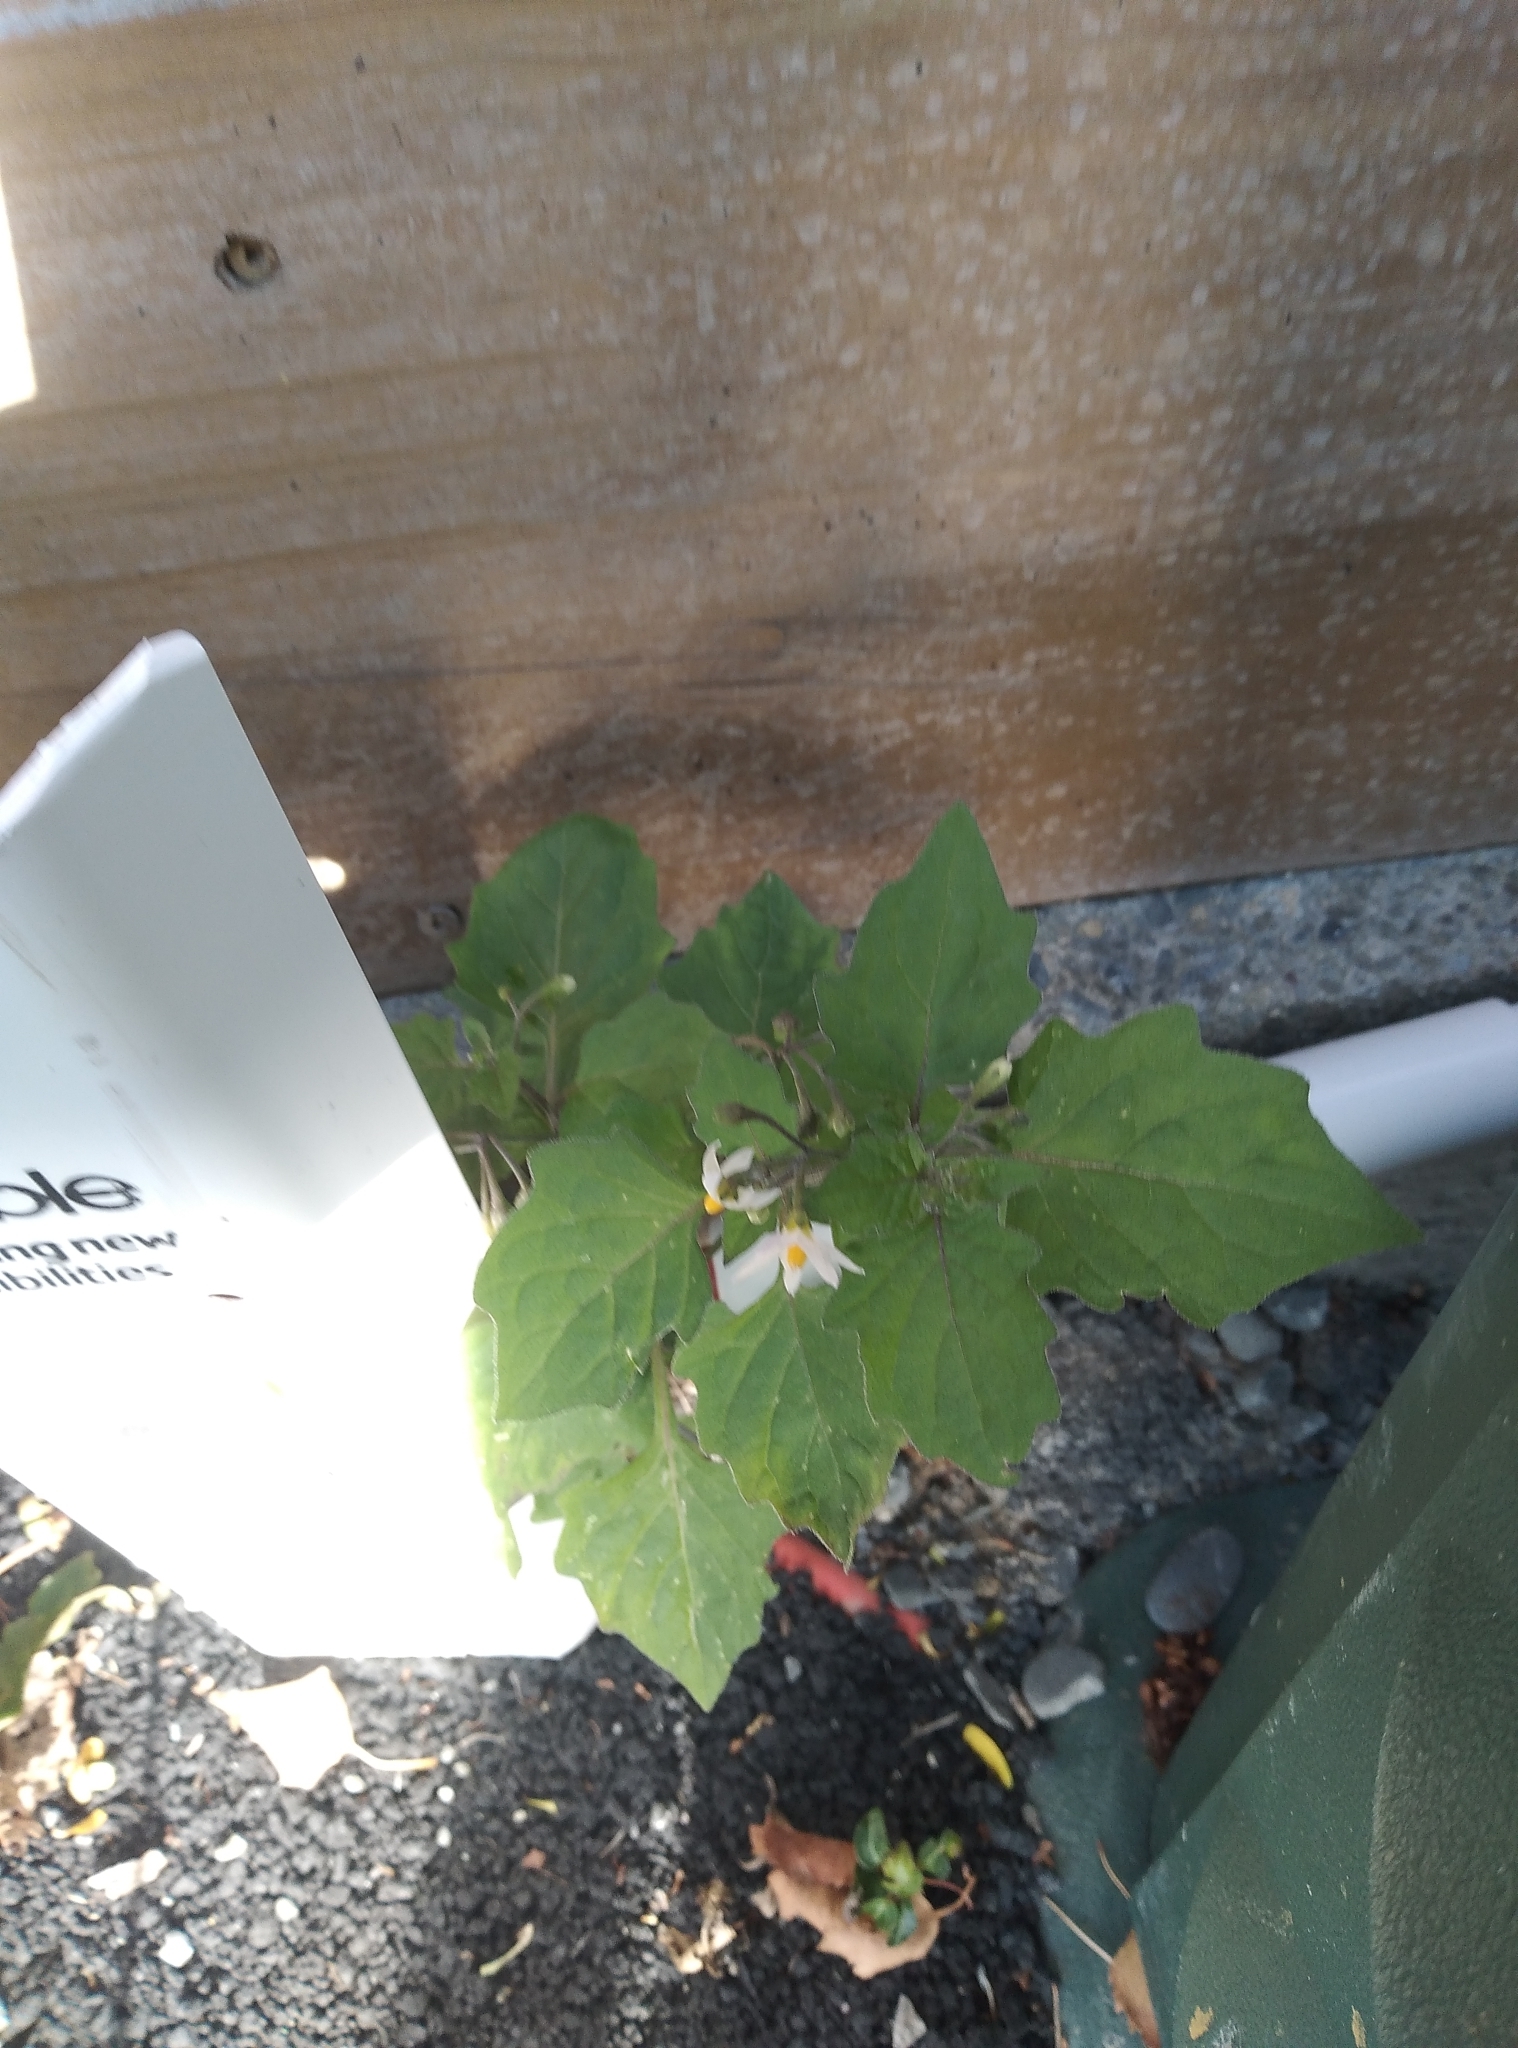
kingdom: Plantae
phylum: Tracheophyta
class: Magnoliopsida
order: Solanales
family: Solanaceae
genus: Solanum
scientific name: Solanum nigrum
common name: Black nightshade
